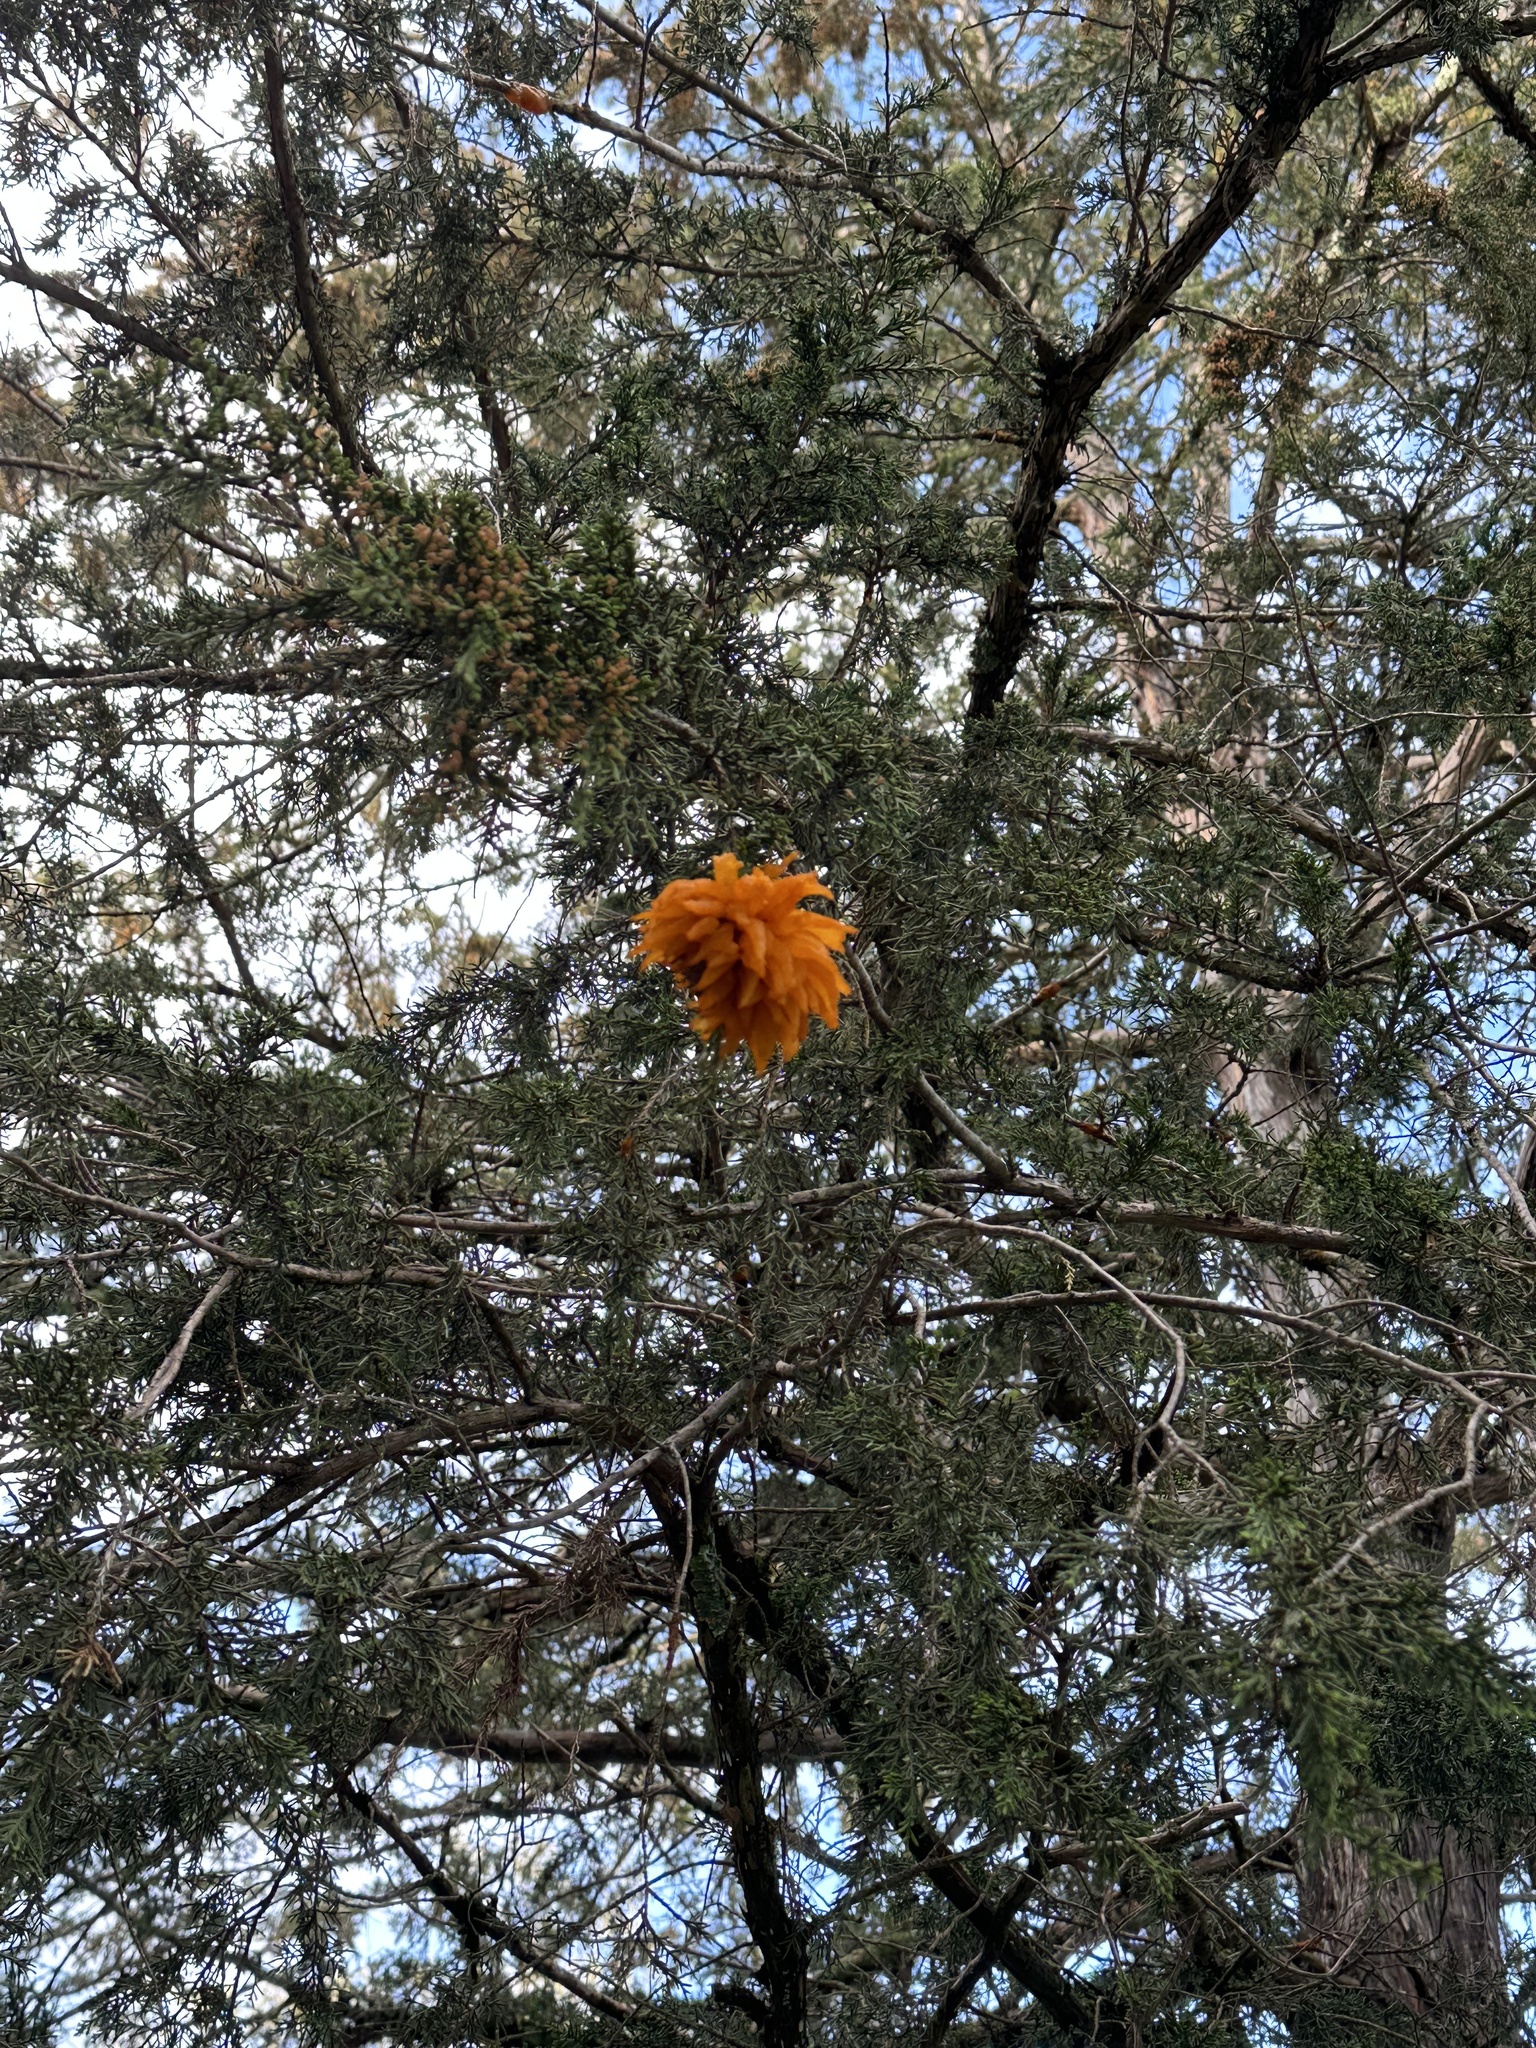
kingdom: Fungi
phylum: Basidiomycota
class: Pucciniomycetes
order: Pucciniales
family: Gymnosporangiaceae
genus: Gymnosporangium
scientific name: Gymnosporangium juniperi-virginianae
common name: Juniper-apple rust
